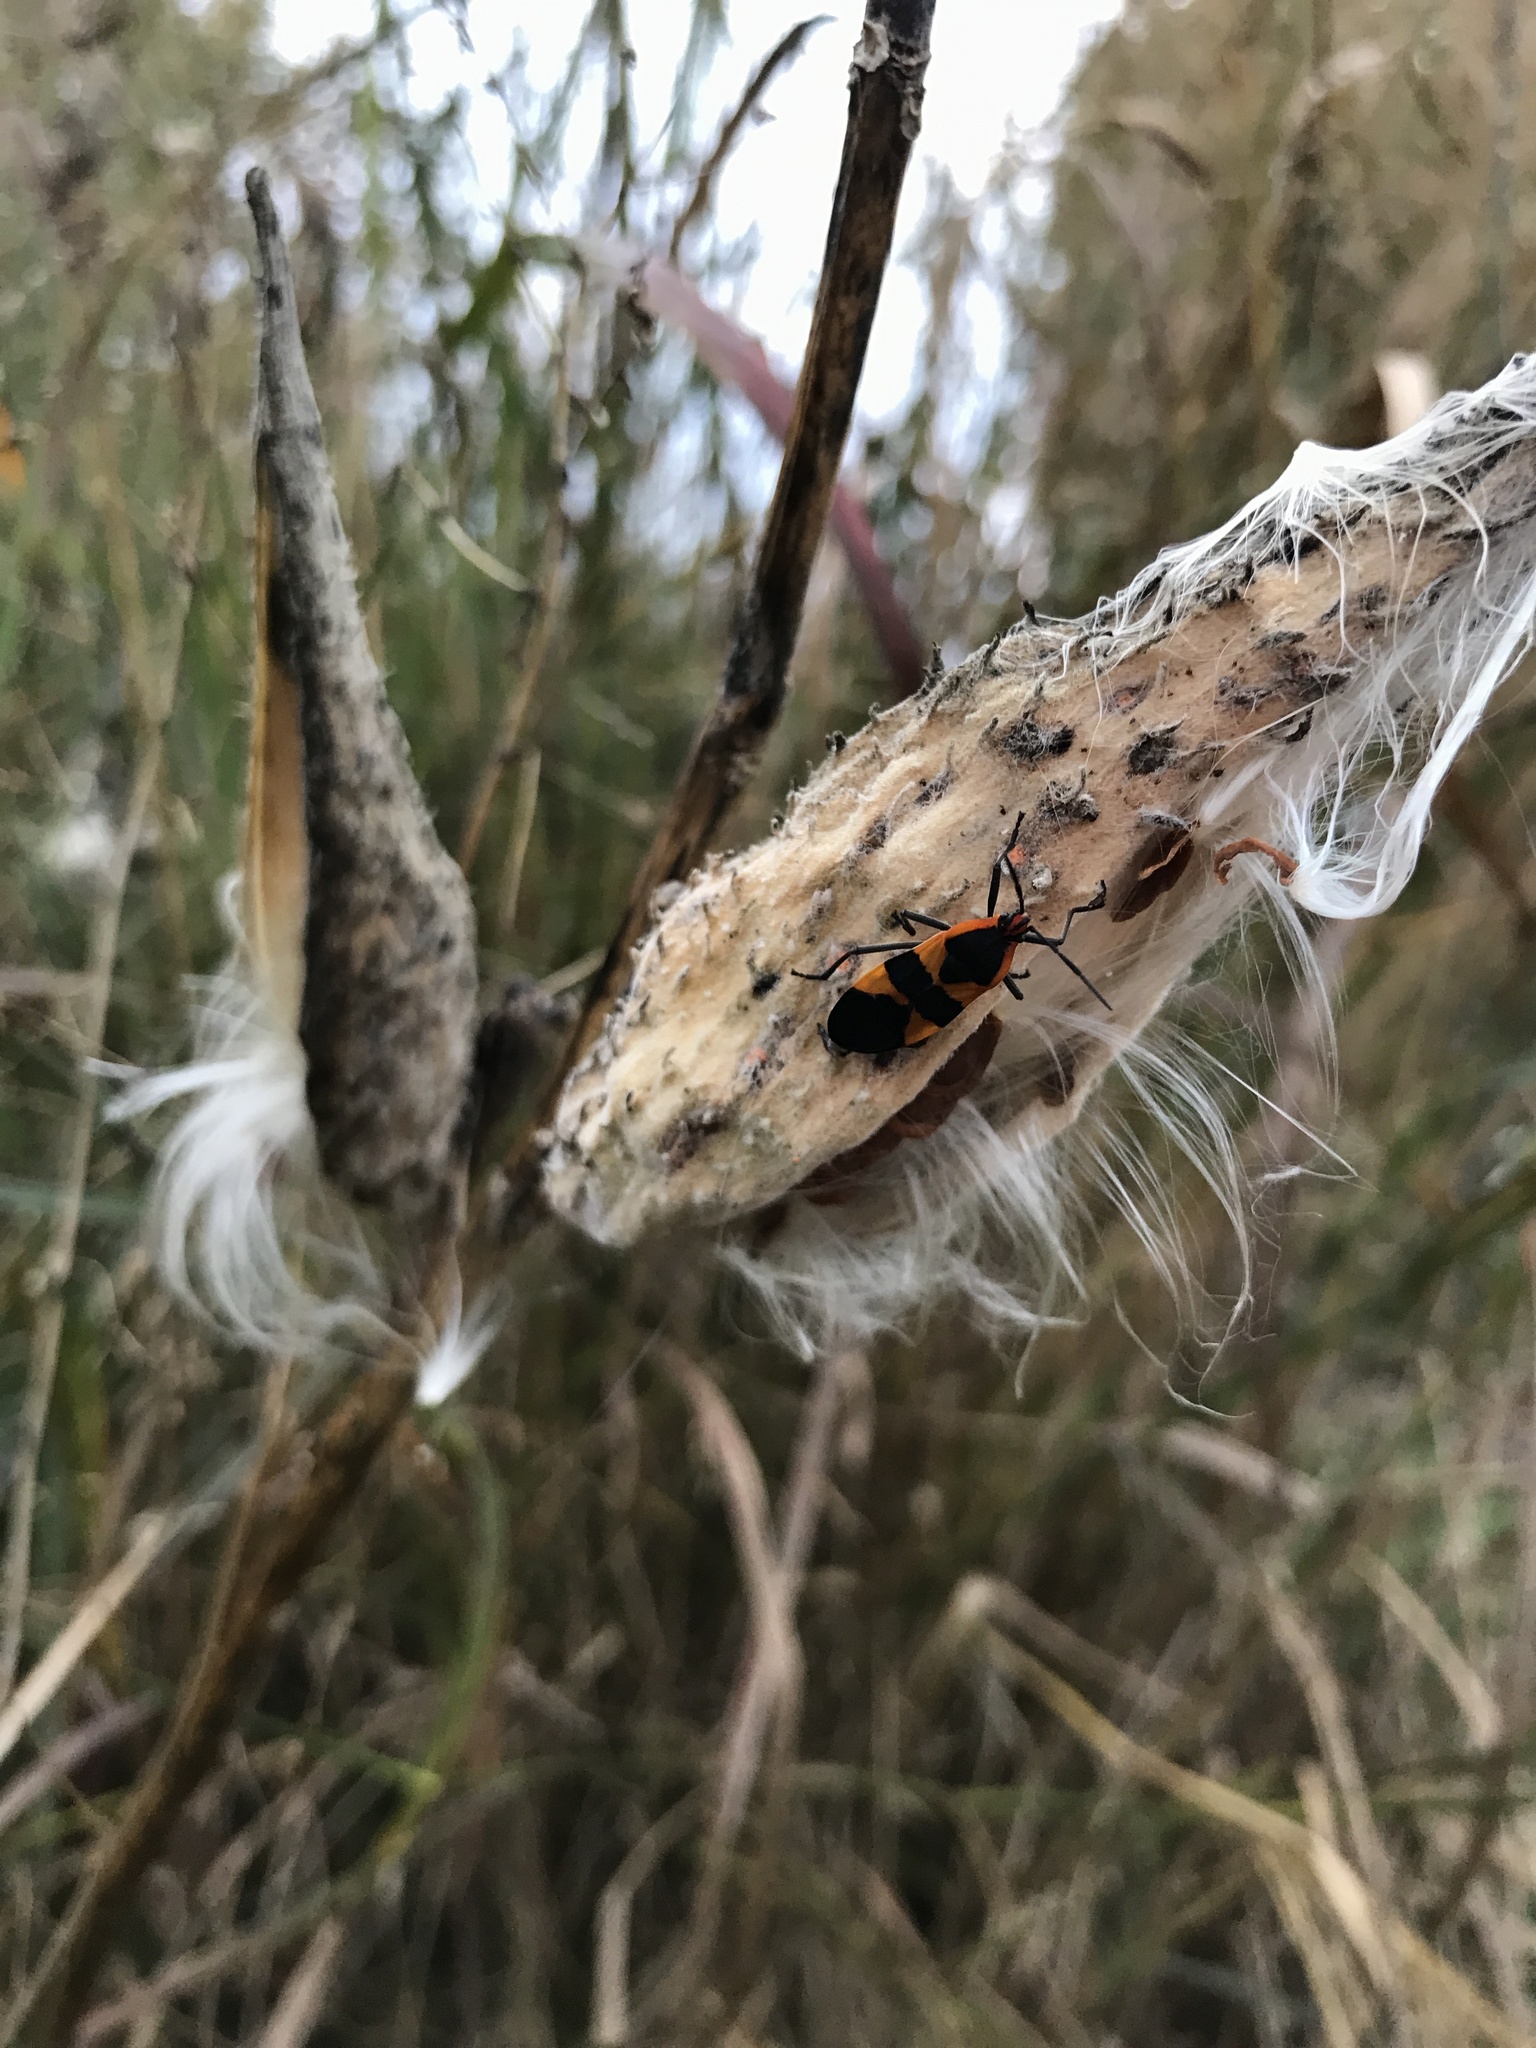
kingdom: Animalia
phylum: Arthropoda
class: Insecta
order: Hemiptera
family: Lygaeidae
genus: Oncopeltus
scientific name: Oncopeltus fasciatus
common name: Large milkweed bug
